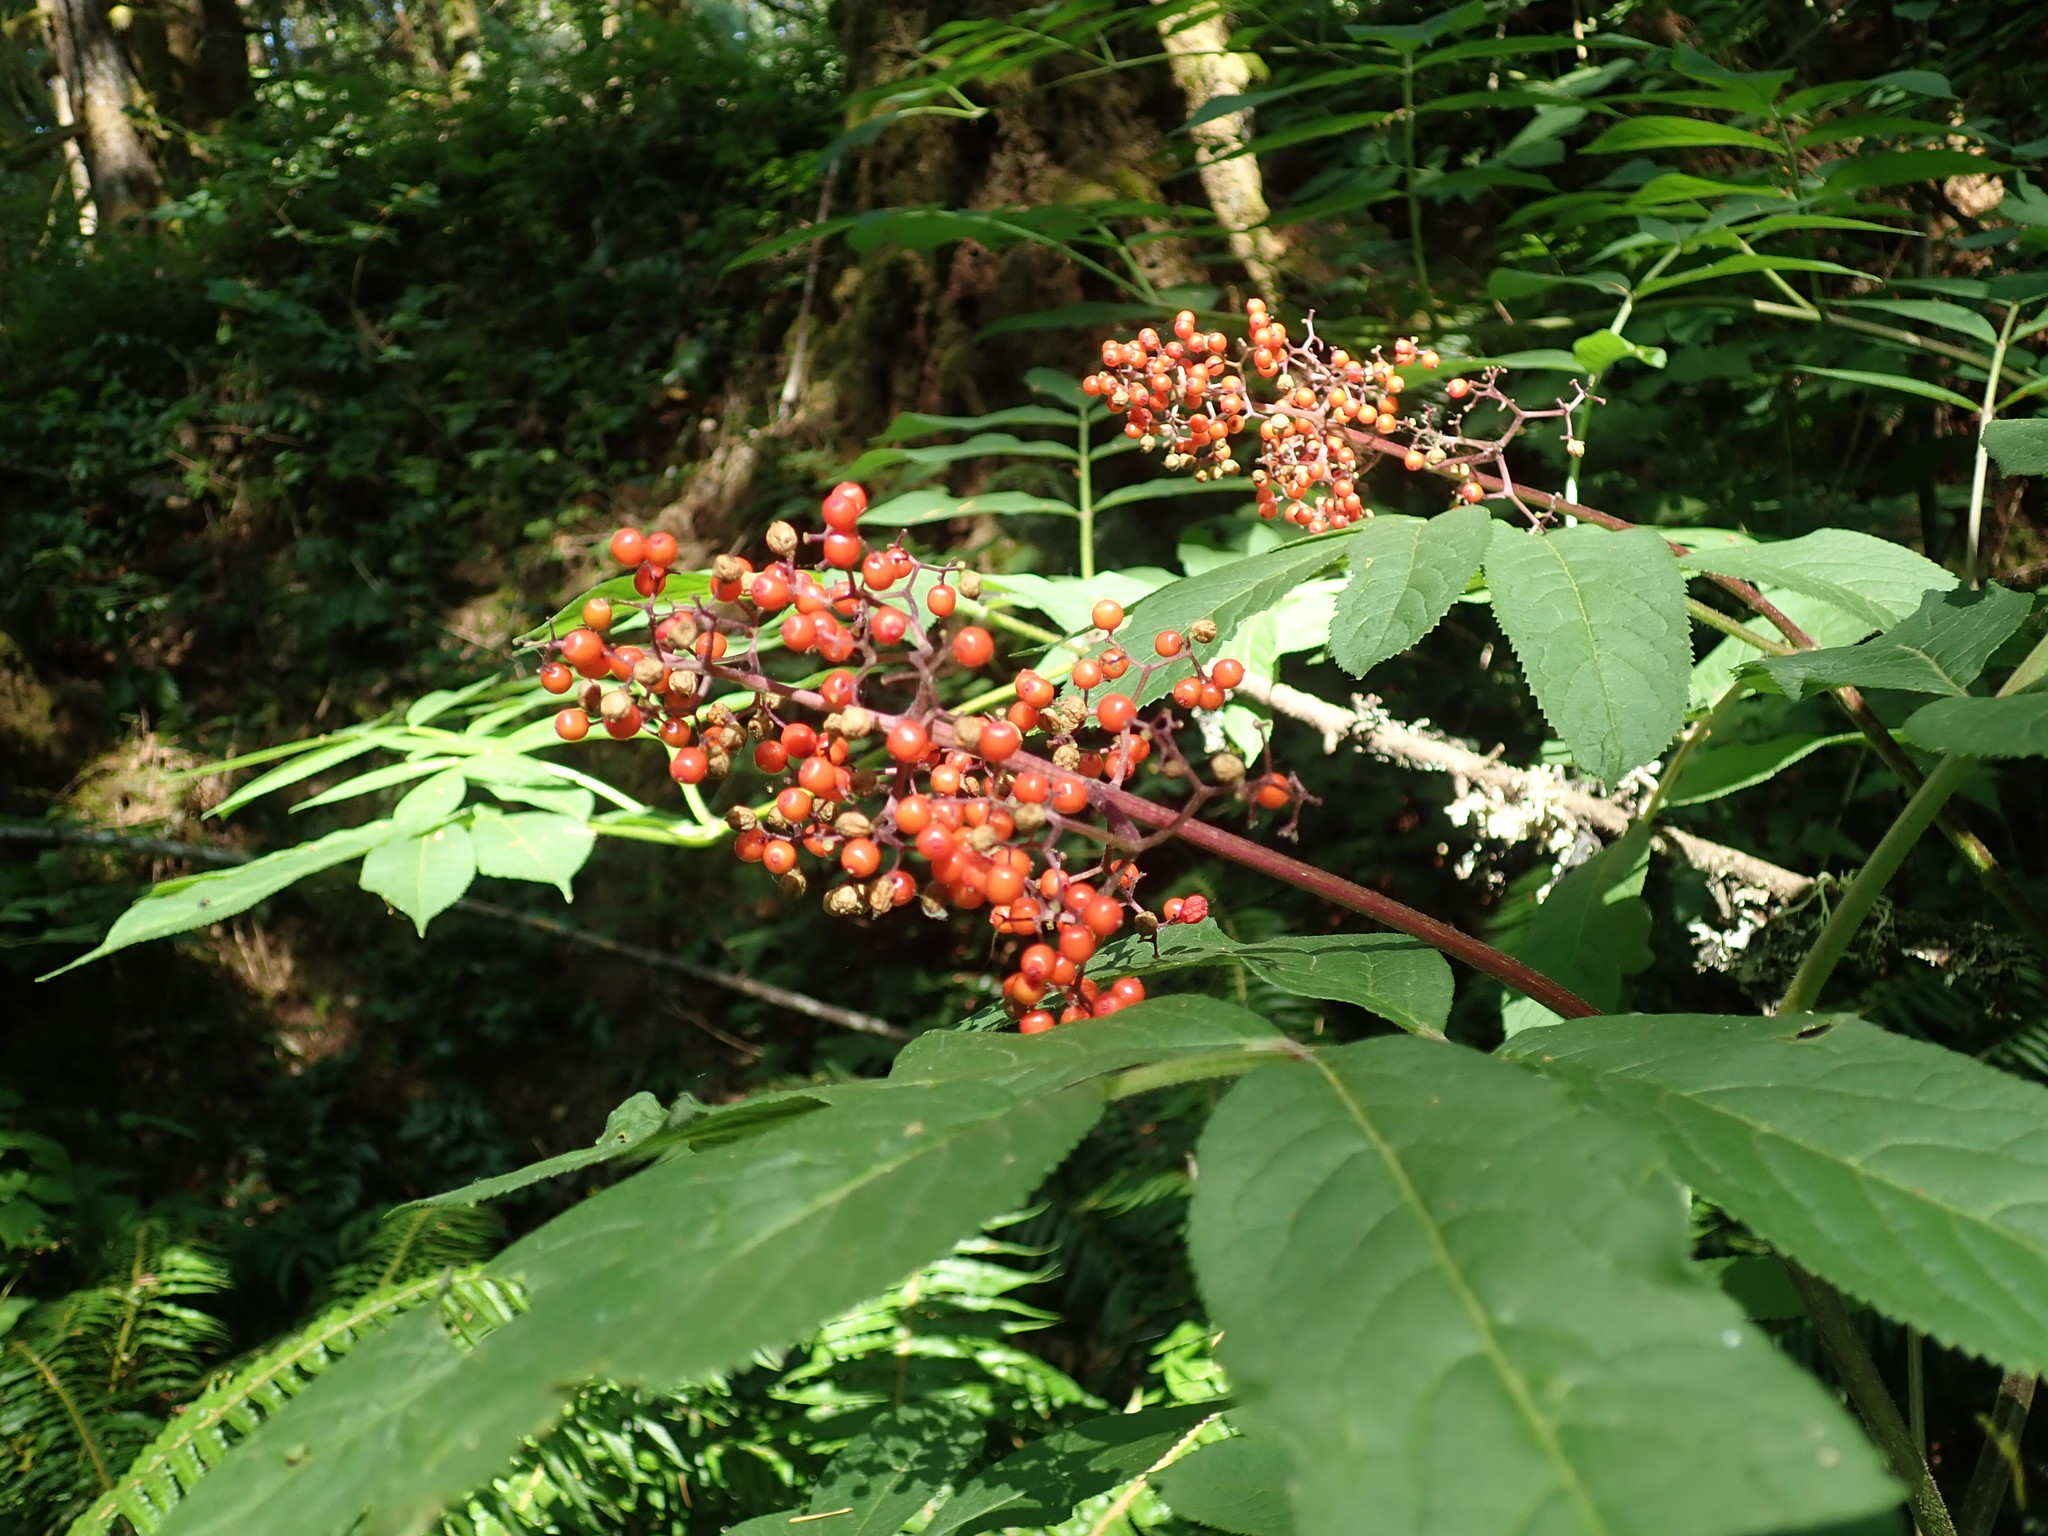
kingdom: Plantae
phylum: Tracheophyta
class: Magnoliopsida
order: Dipsacales
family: Viburnaceae
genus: Sambucus
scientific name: Sambucus racemosa
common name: Red-berried elder
